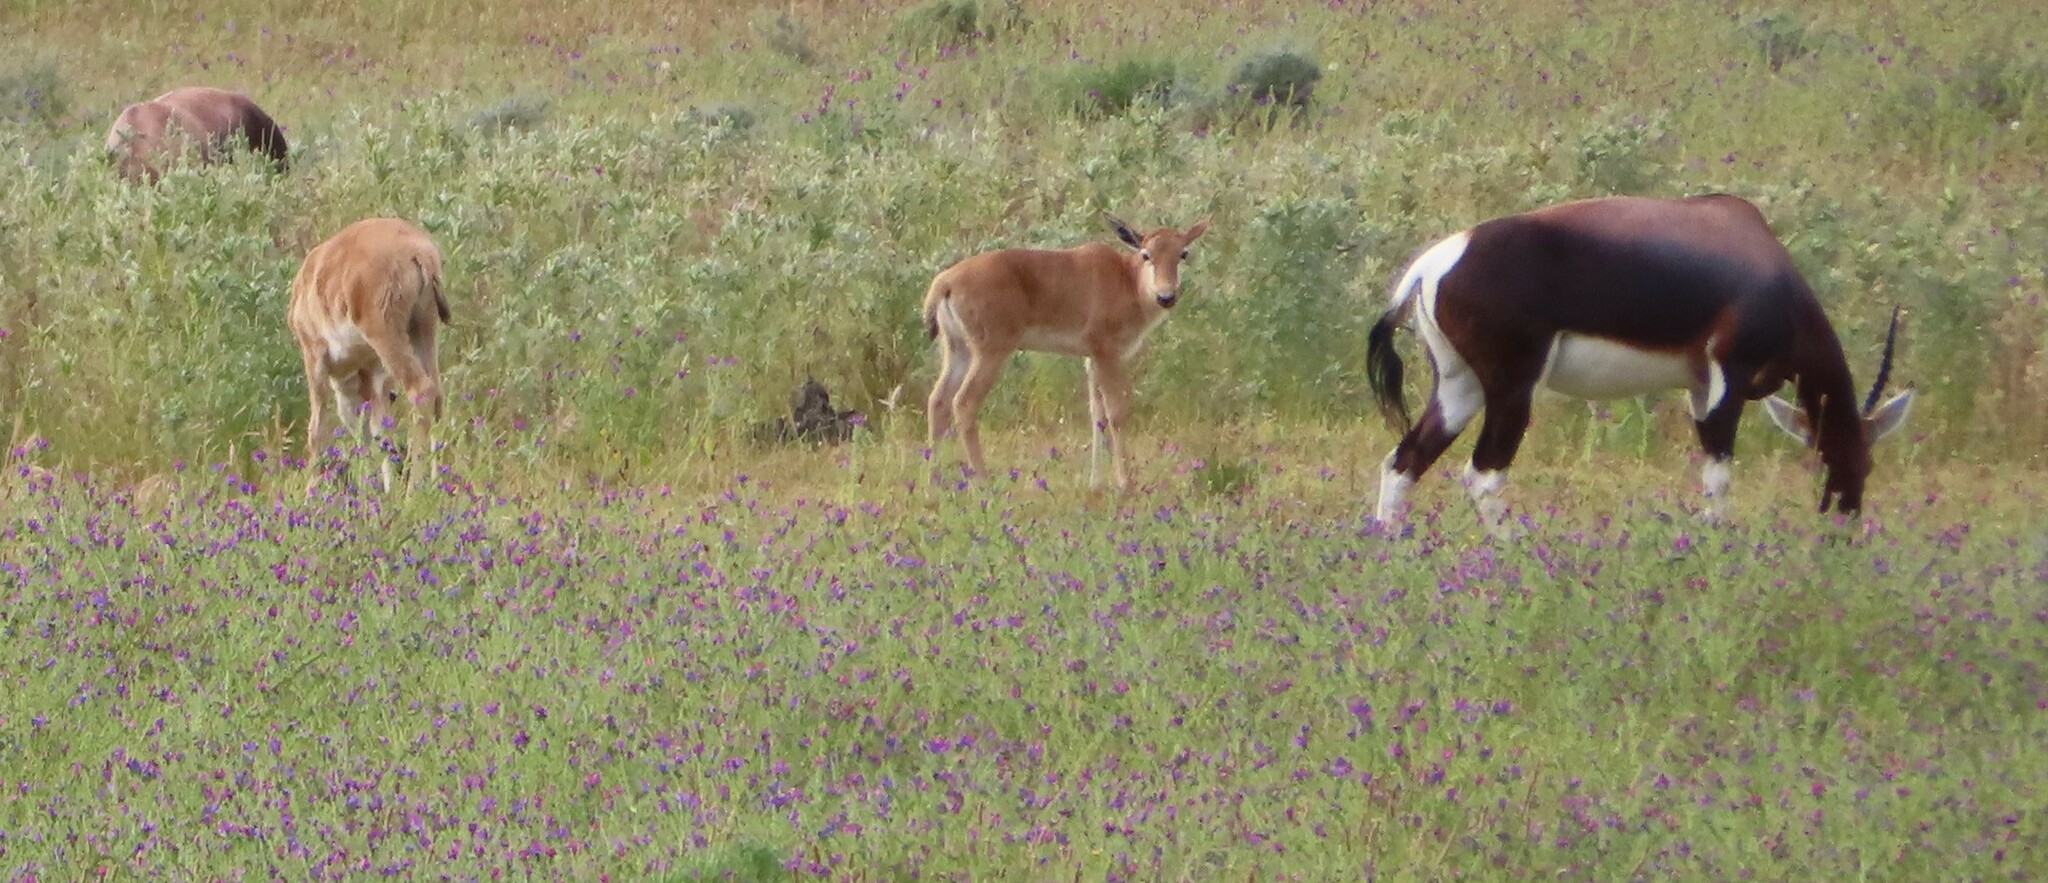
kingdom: Animalia
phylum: Chordata
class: Mammalia
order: Artiodactyla
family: Bovidae
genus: Damaliscus
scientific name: Damaliscus pygargus
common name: Bontebok
